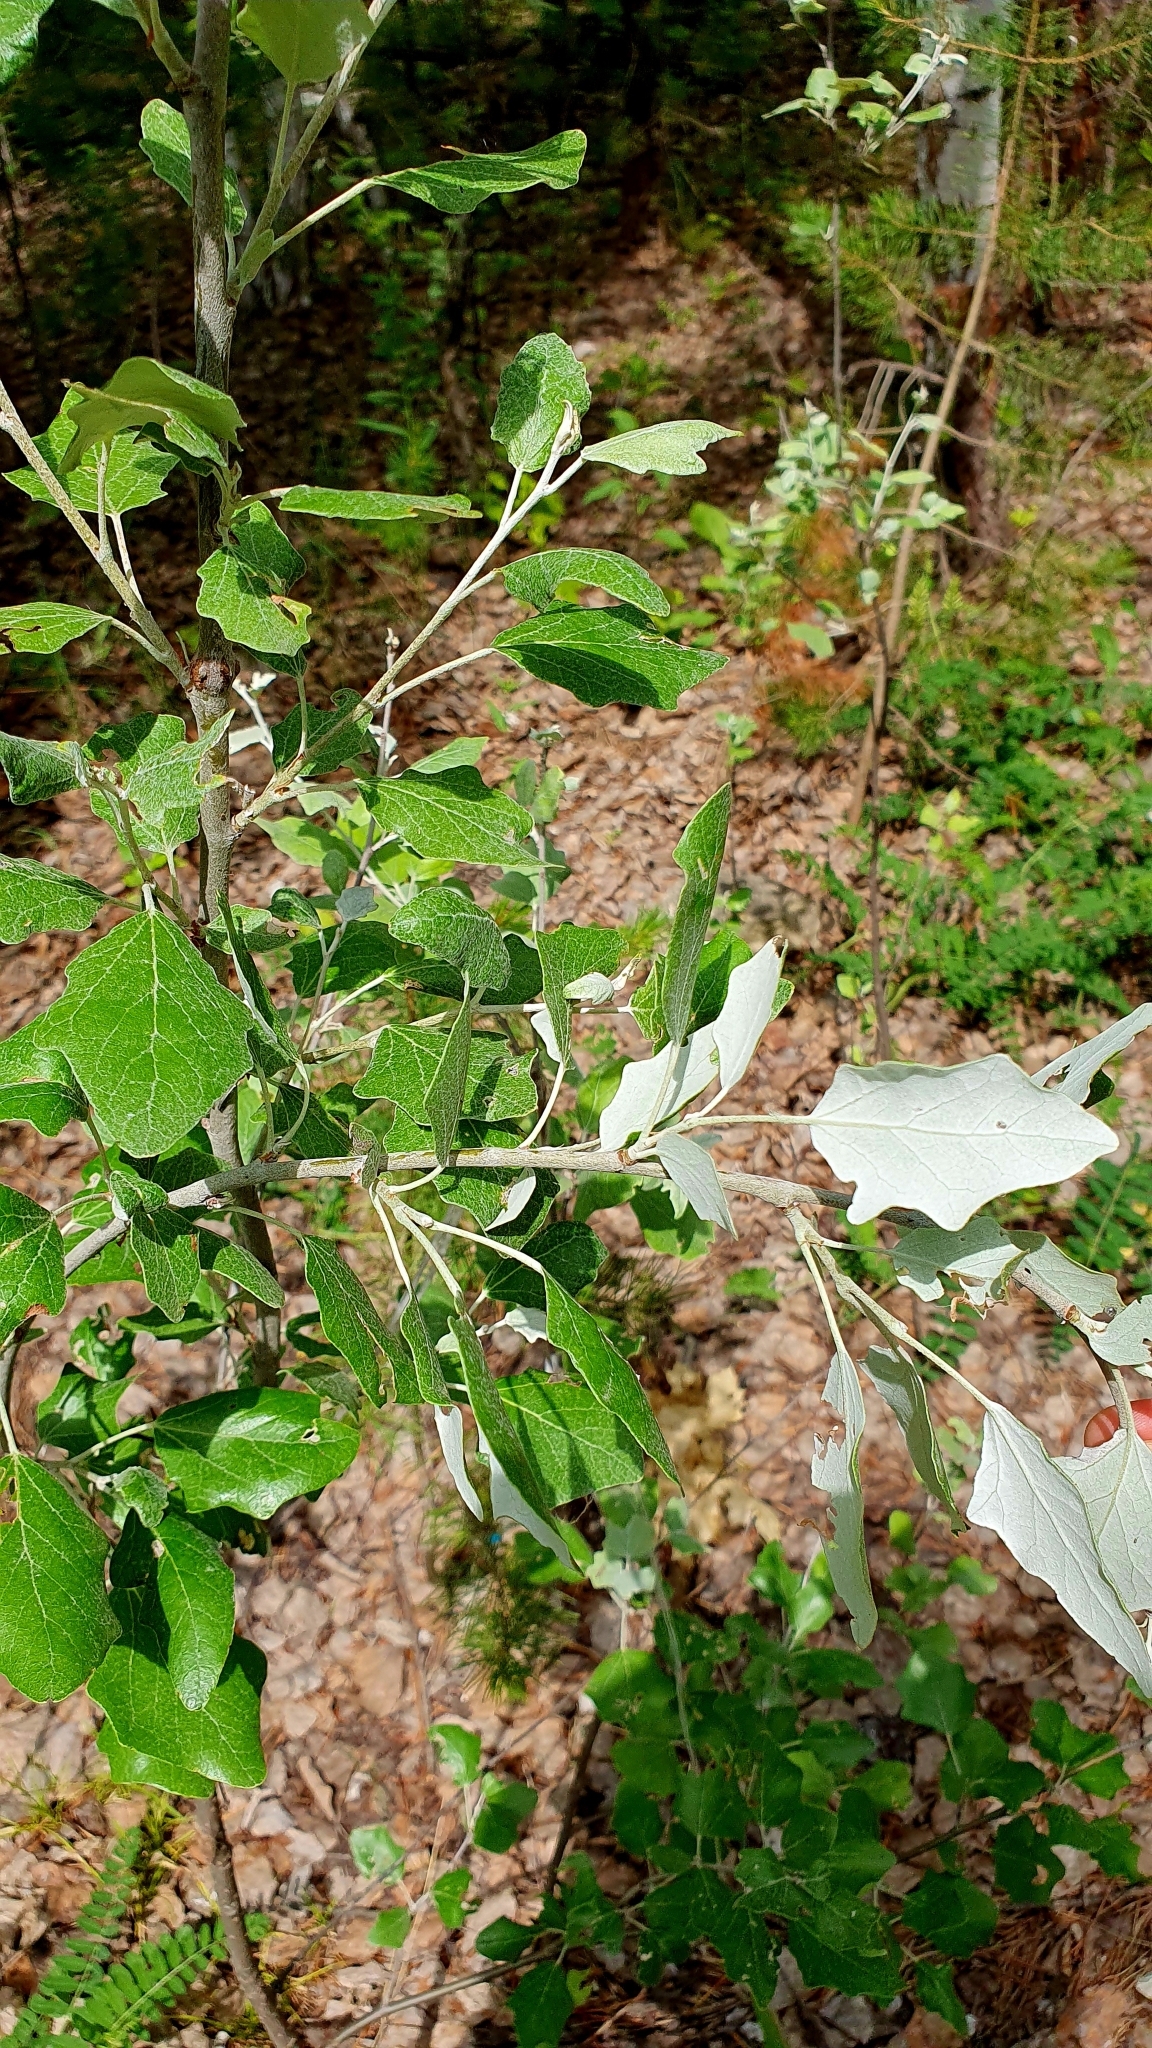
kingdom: Plantae
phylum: Tracheophyta
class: Magnoliopsida
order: Malpighiales
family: Salicaceae
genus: Populus
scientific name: Populus alba
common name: White poplar
